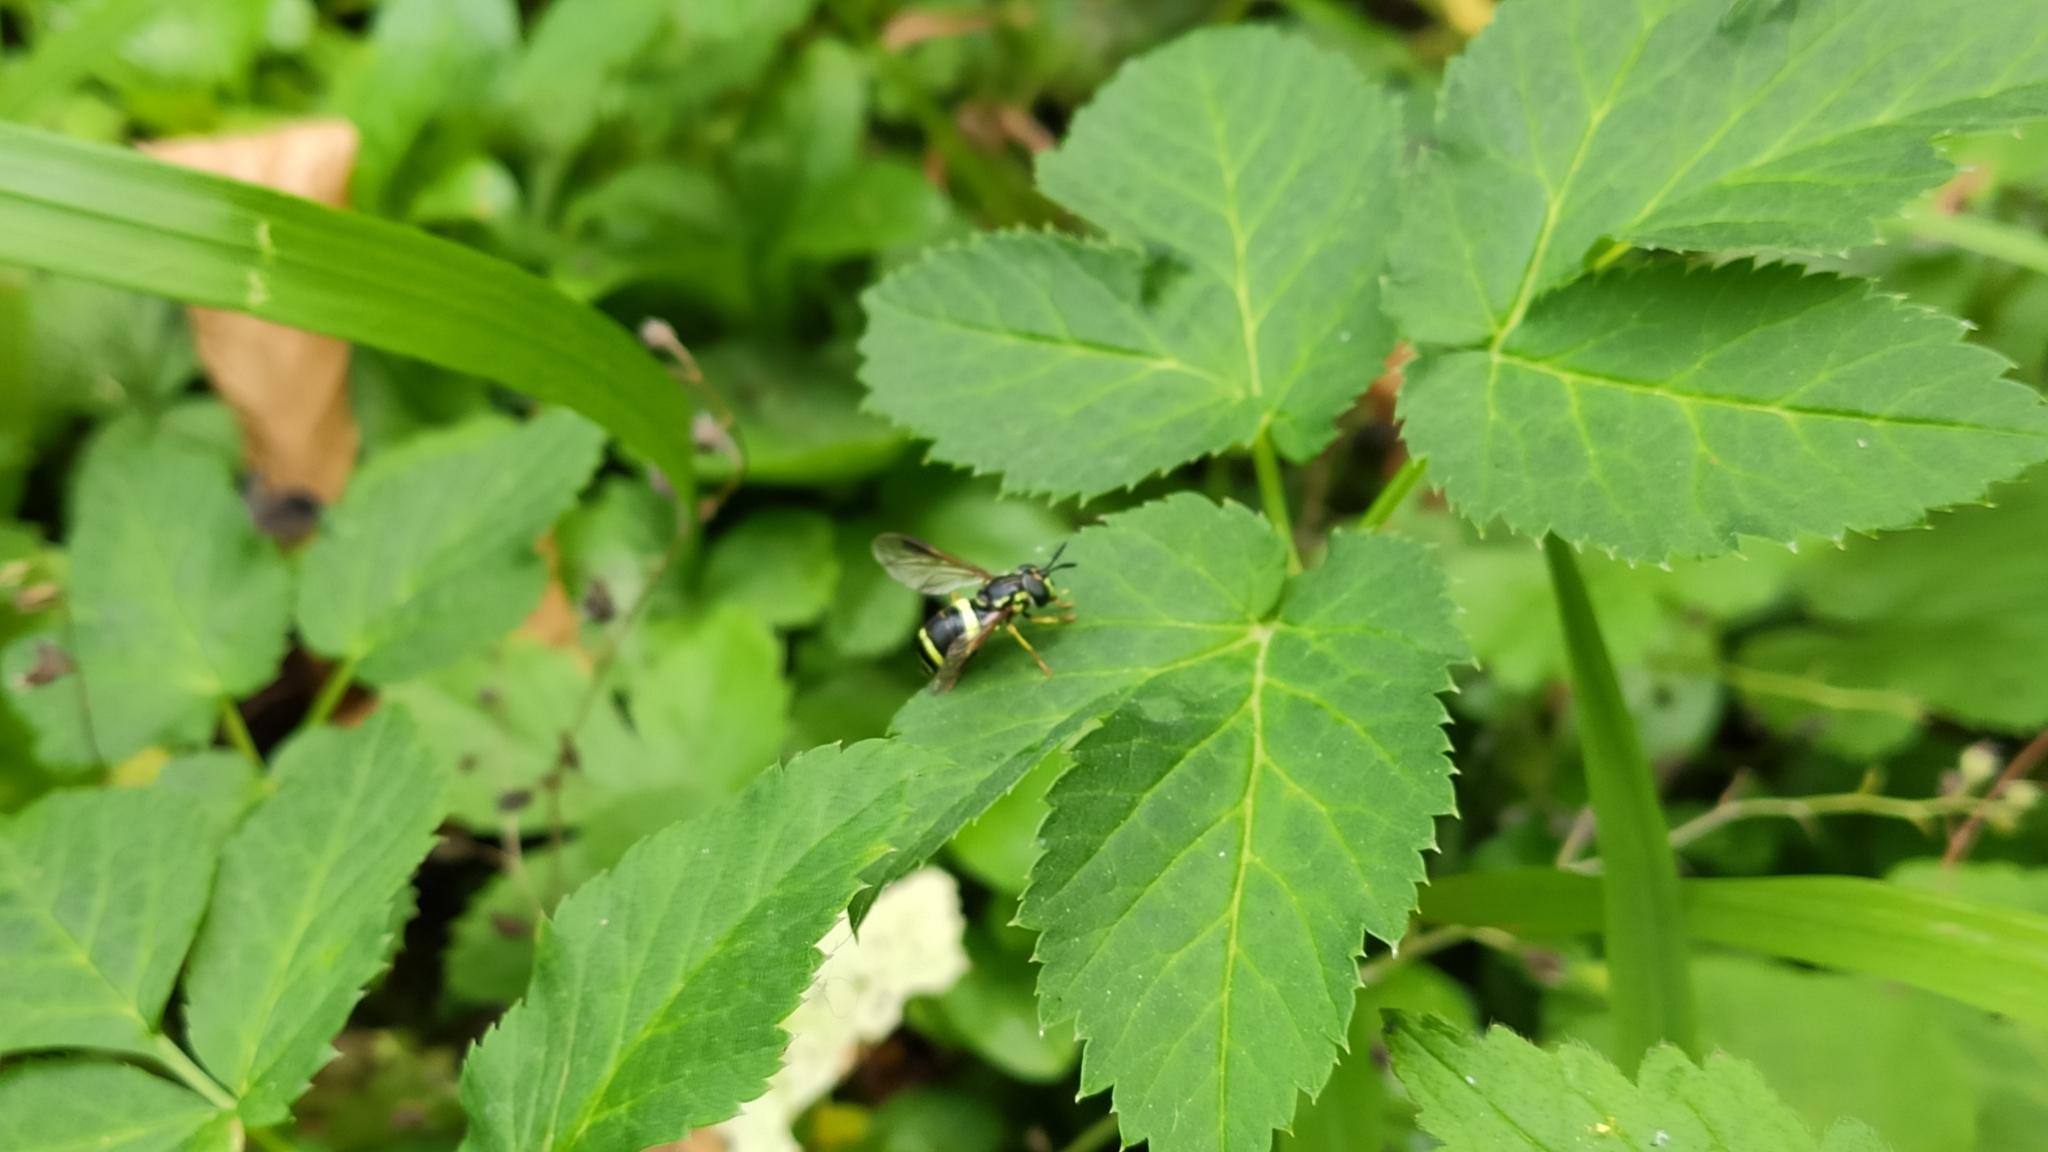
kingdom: Animalia
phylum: Arthropoda
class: Insecta
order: Diptera
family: Syrphidae
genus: Chrysotoxum
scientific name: Chrysotoxum bicincta
